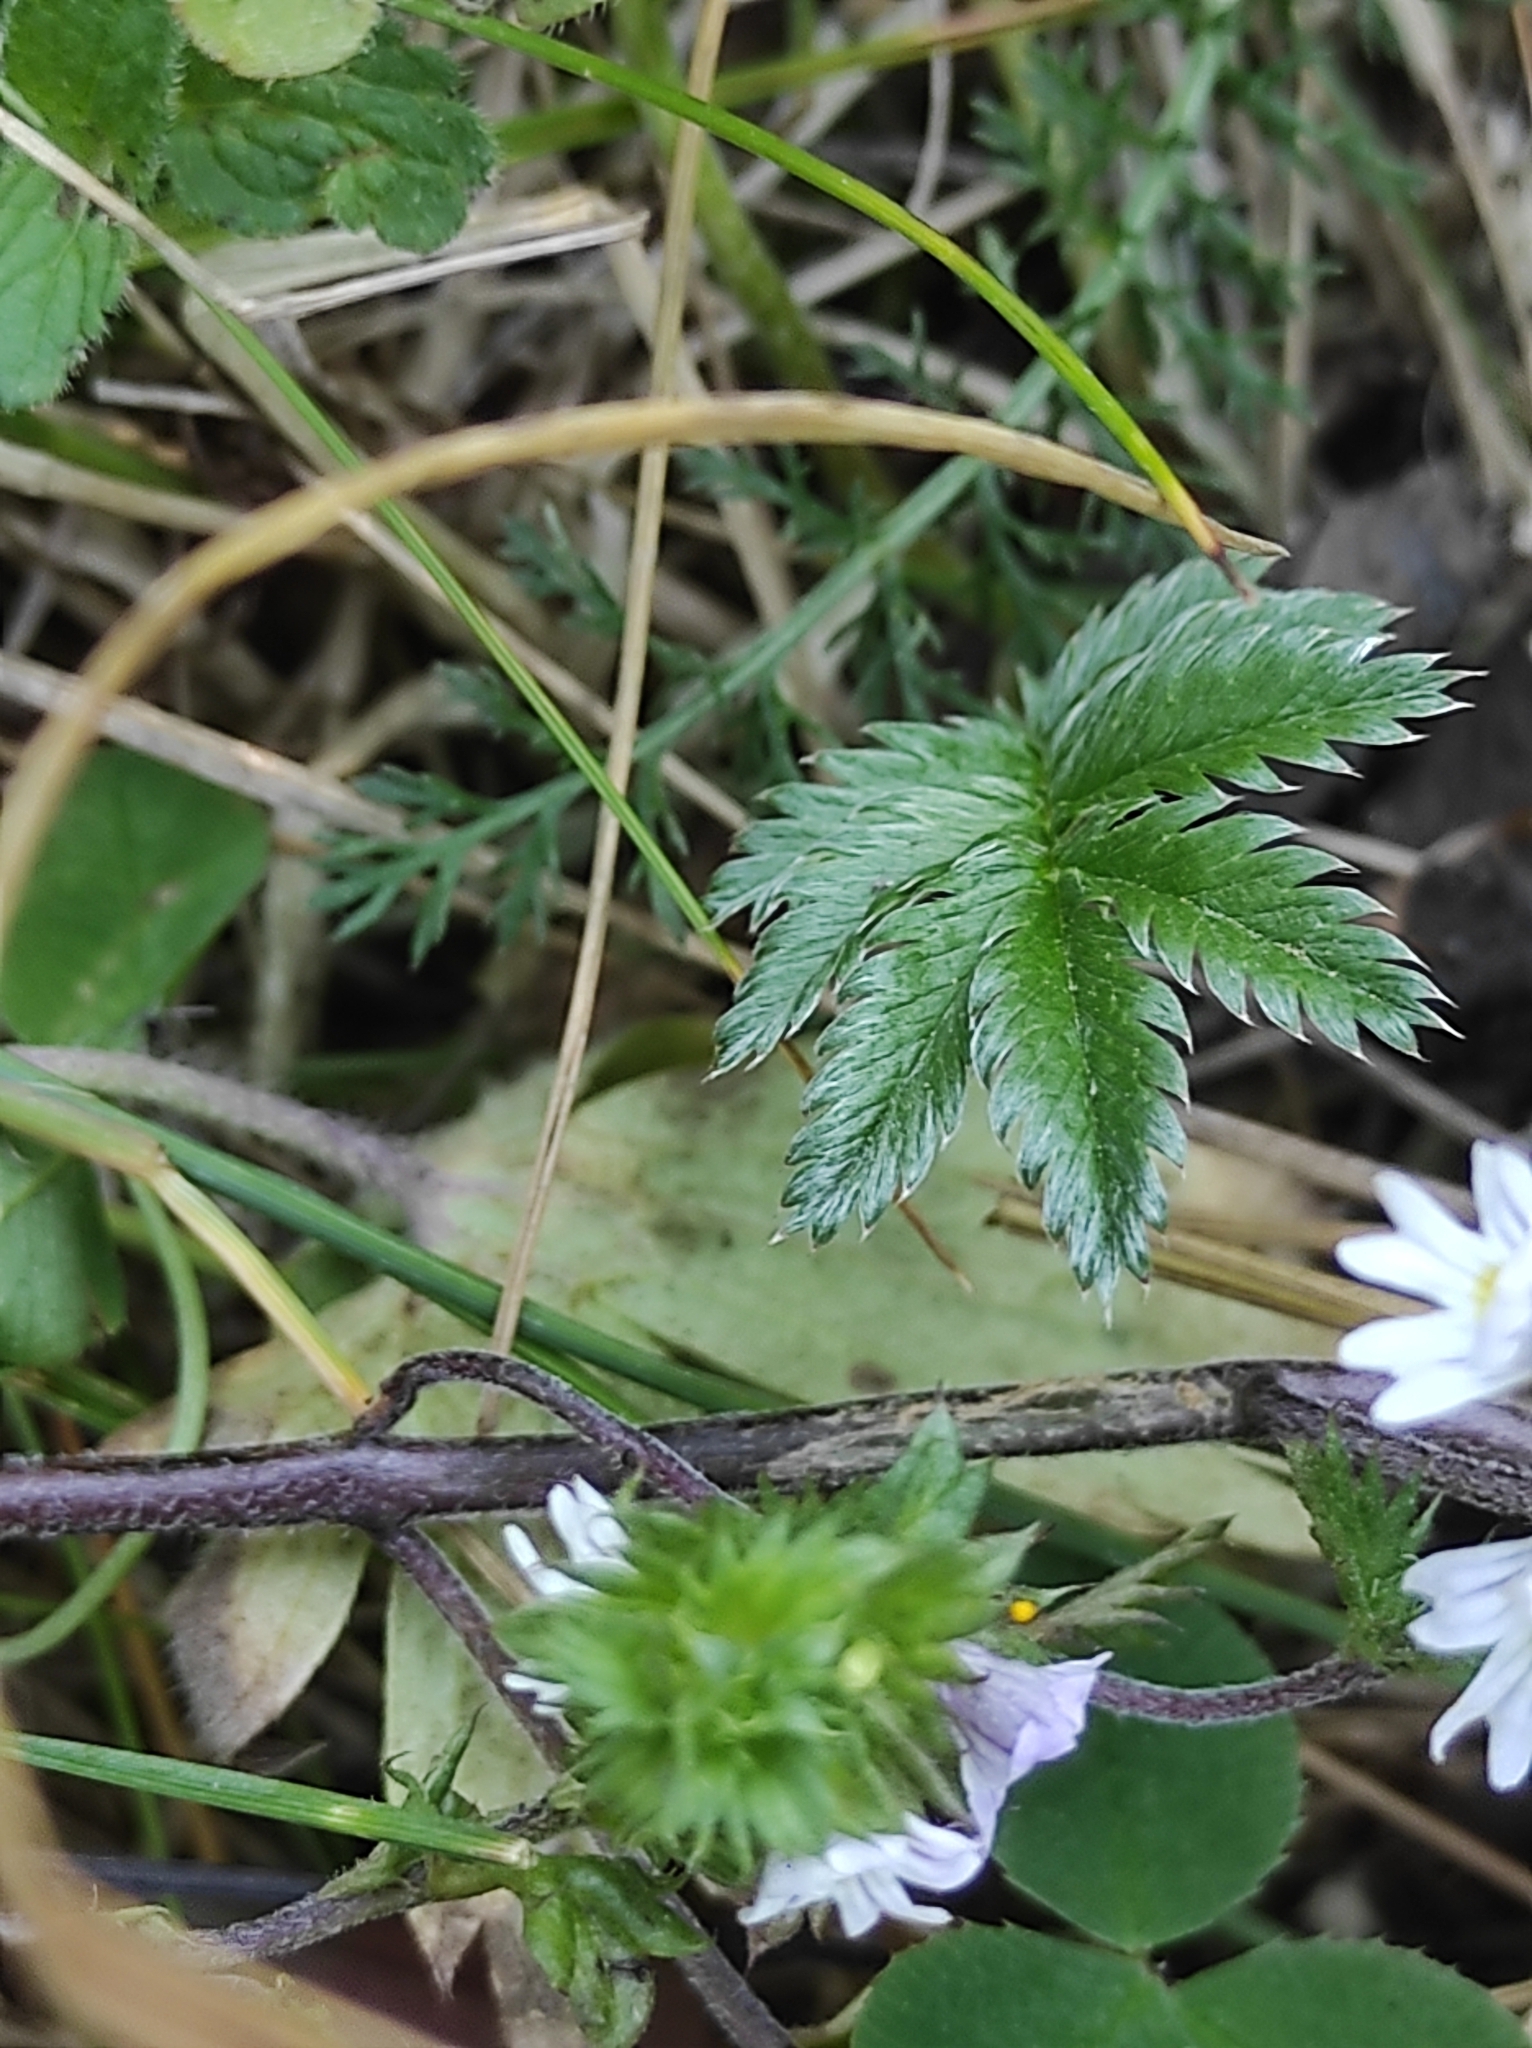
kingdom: Plantae
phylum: Tracheophyta
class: Magnoliopsida
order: Lamiales
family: Orobanchaceae
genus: Euphrasia
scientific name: Euphrasia stricta
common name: Drug eyebright
